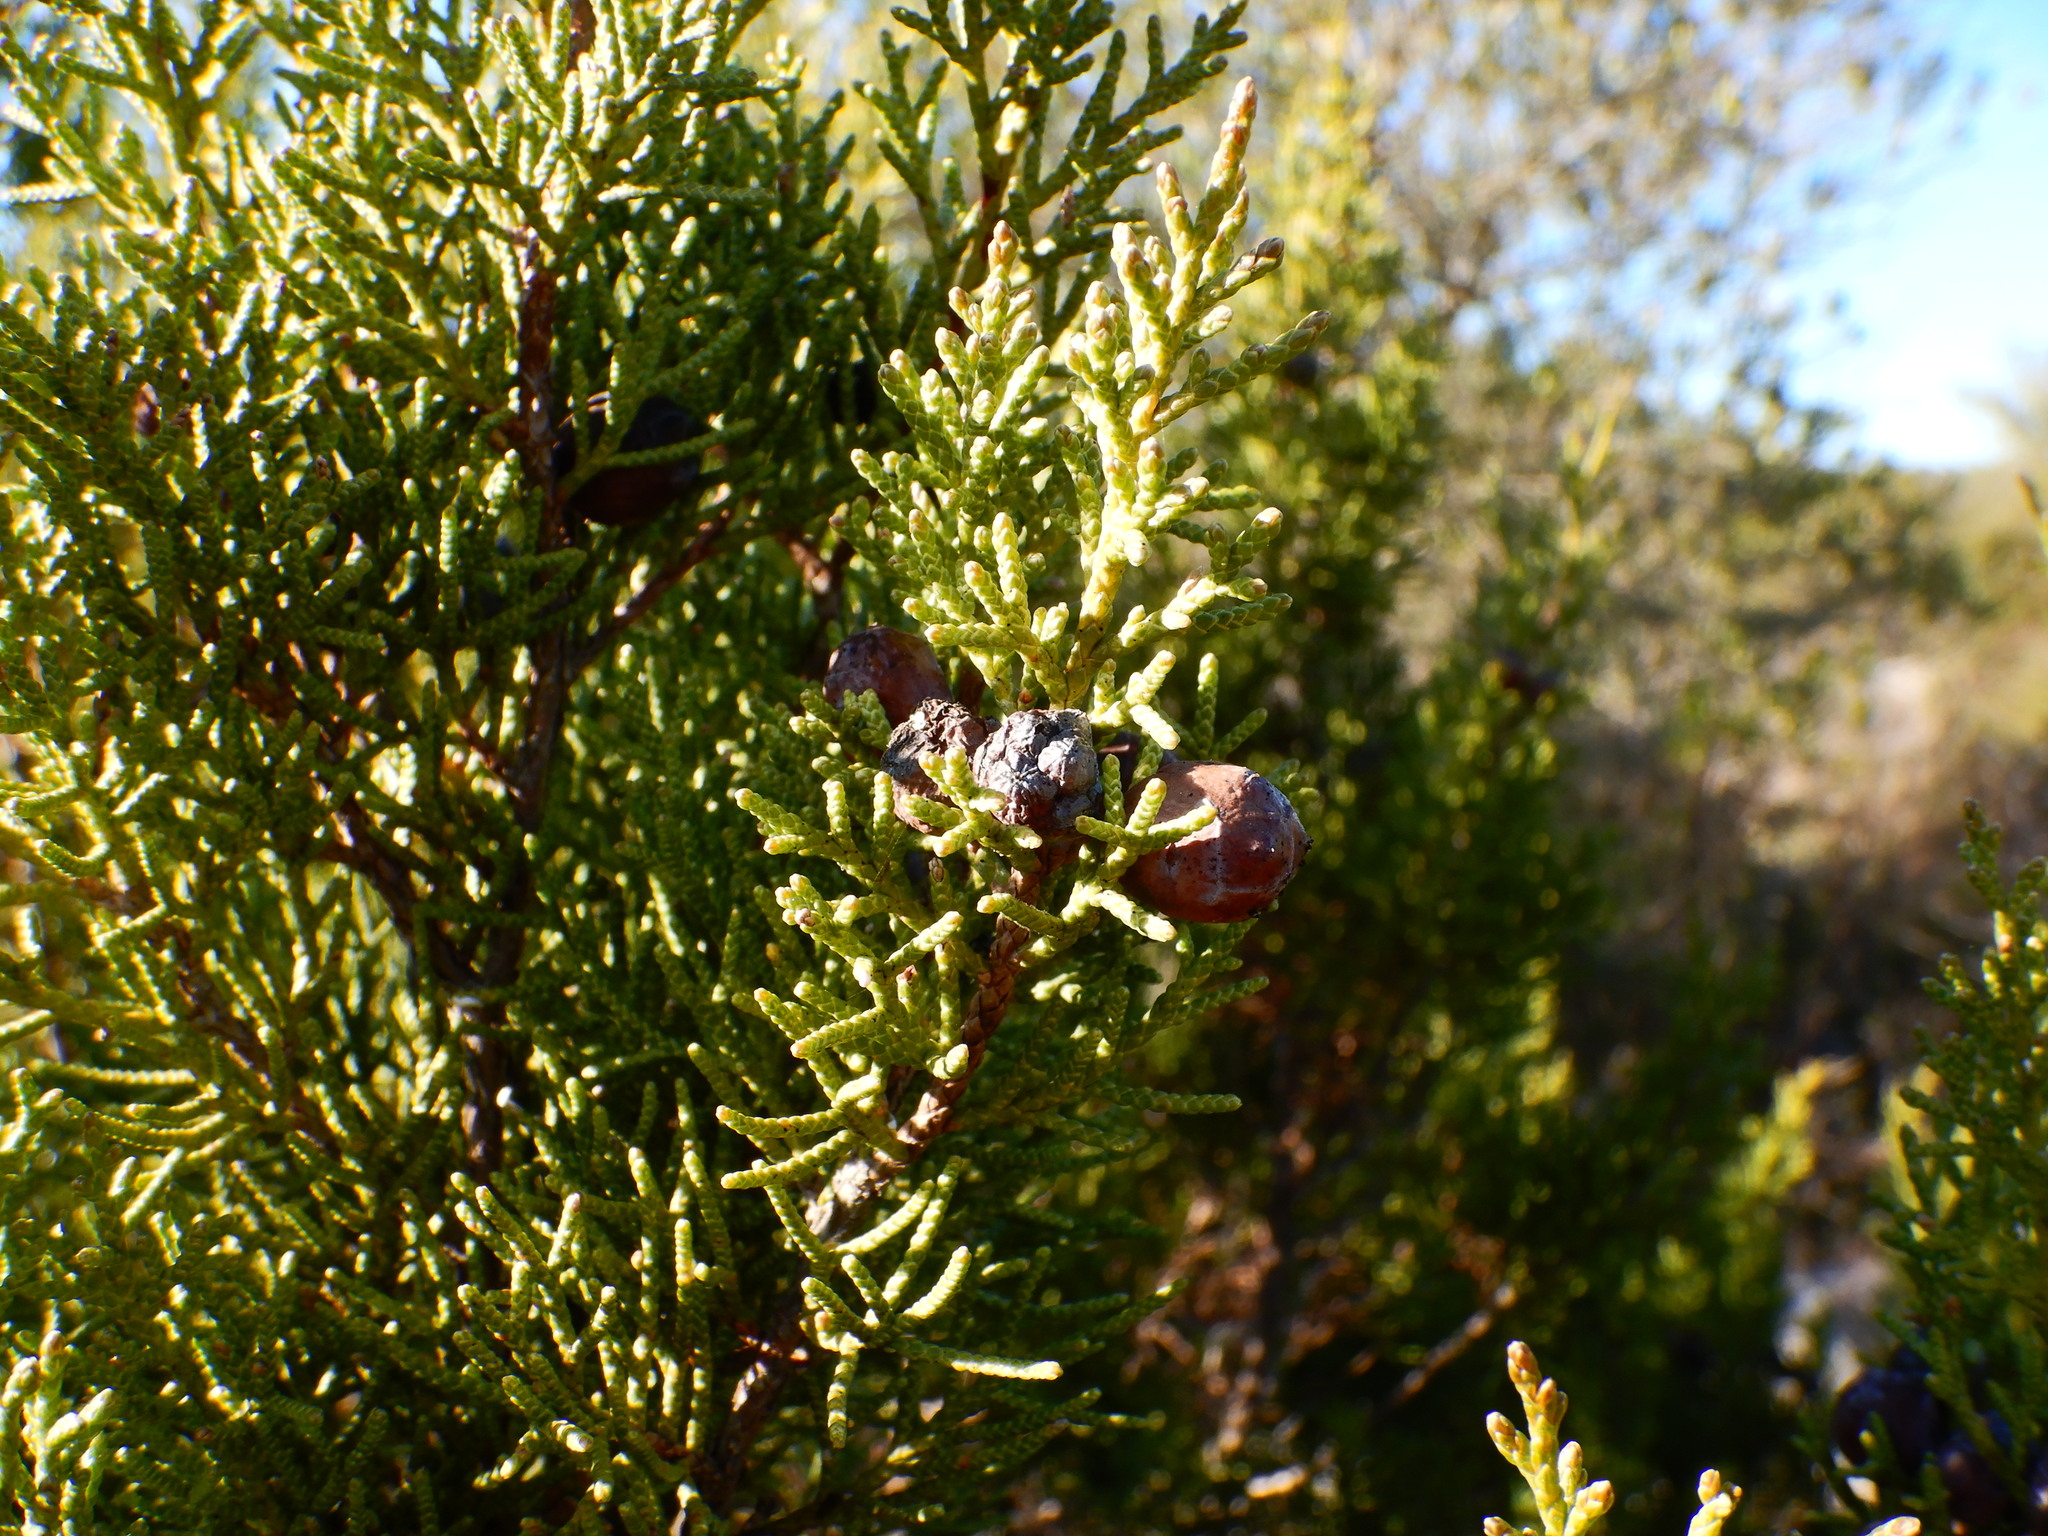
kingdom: Plantae
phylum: Tracheophyta
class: Pinopsida
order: Pinales
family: Cupressaceae
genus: Juniperus
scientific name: Juniperus phoenicea
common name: Phoenician juniper
